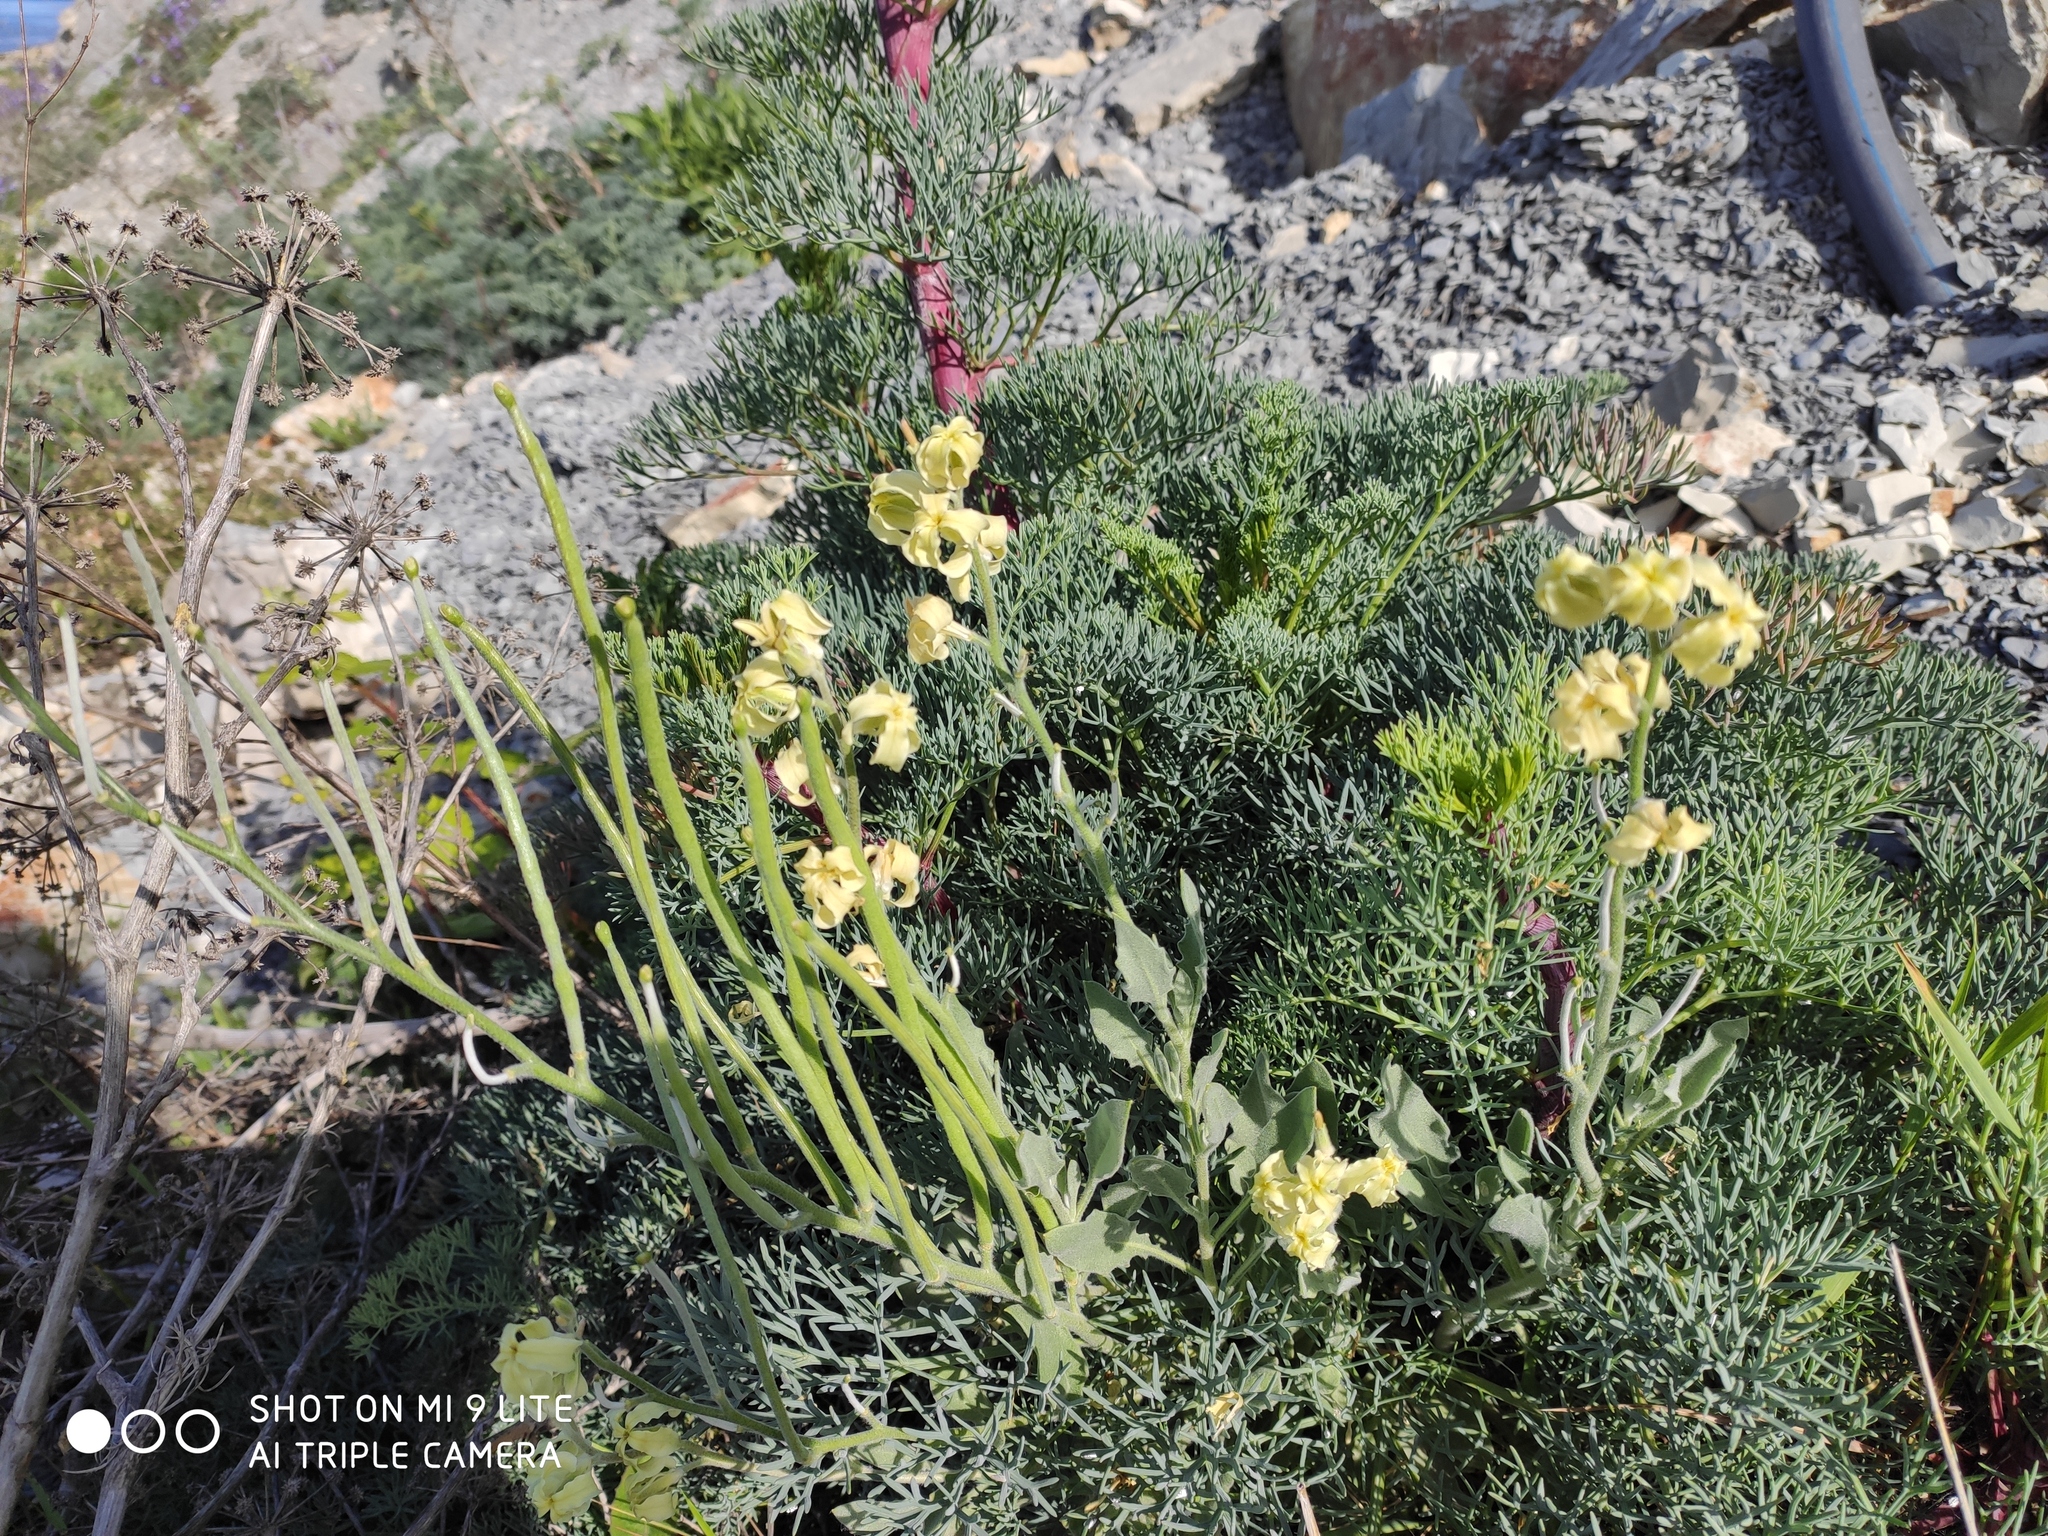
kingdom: Plantae
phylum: Tracheophyta
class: Magnoliopsida
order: Brassicales
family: Brassicaceae
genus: Matthiola
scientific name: Matthiola odoratissima
